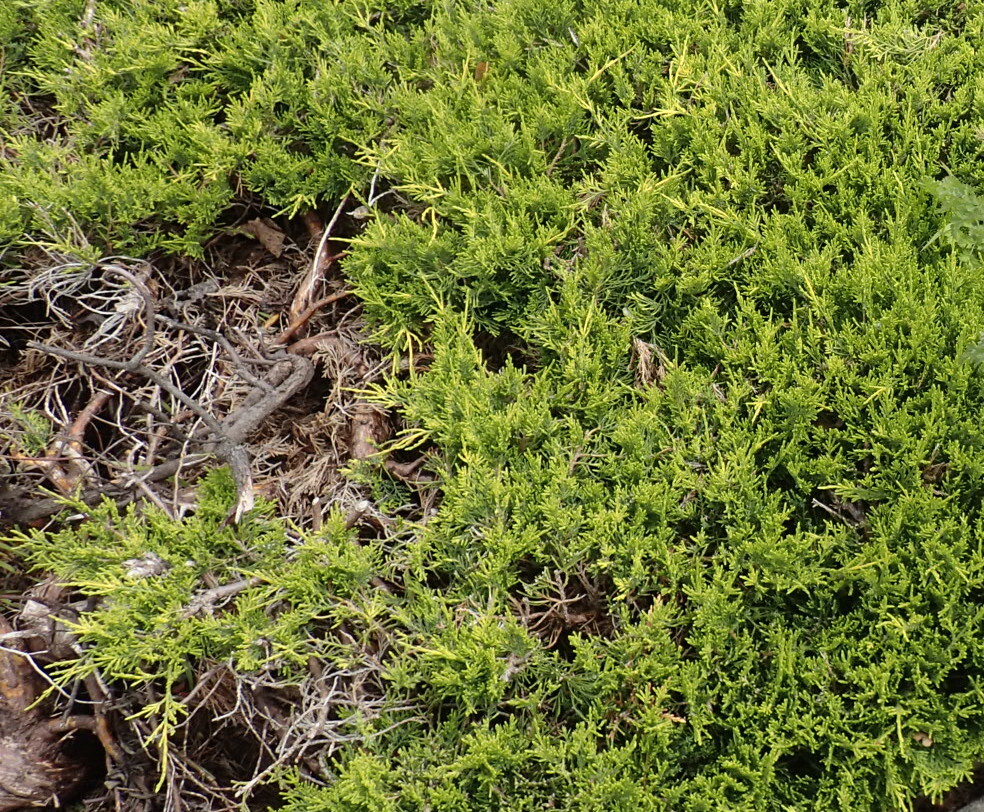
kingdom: Plantae
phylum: Tracheophyta
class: Pinopsida
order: Pinales
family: Cupressaceae
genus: Cupressus
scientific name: Cupressus macrocarpa
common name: Monterey cypress
